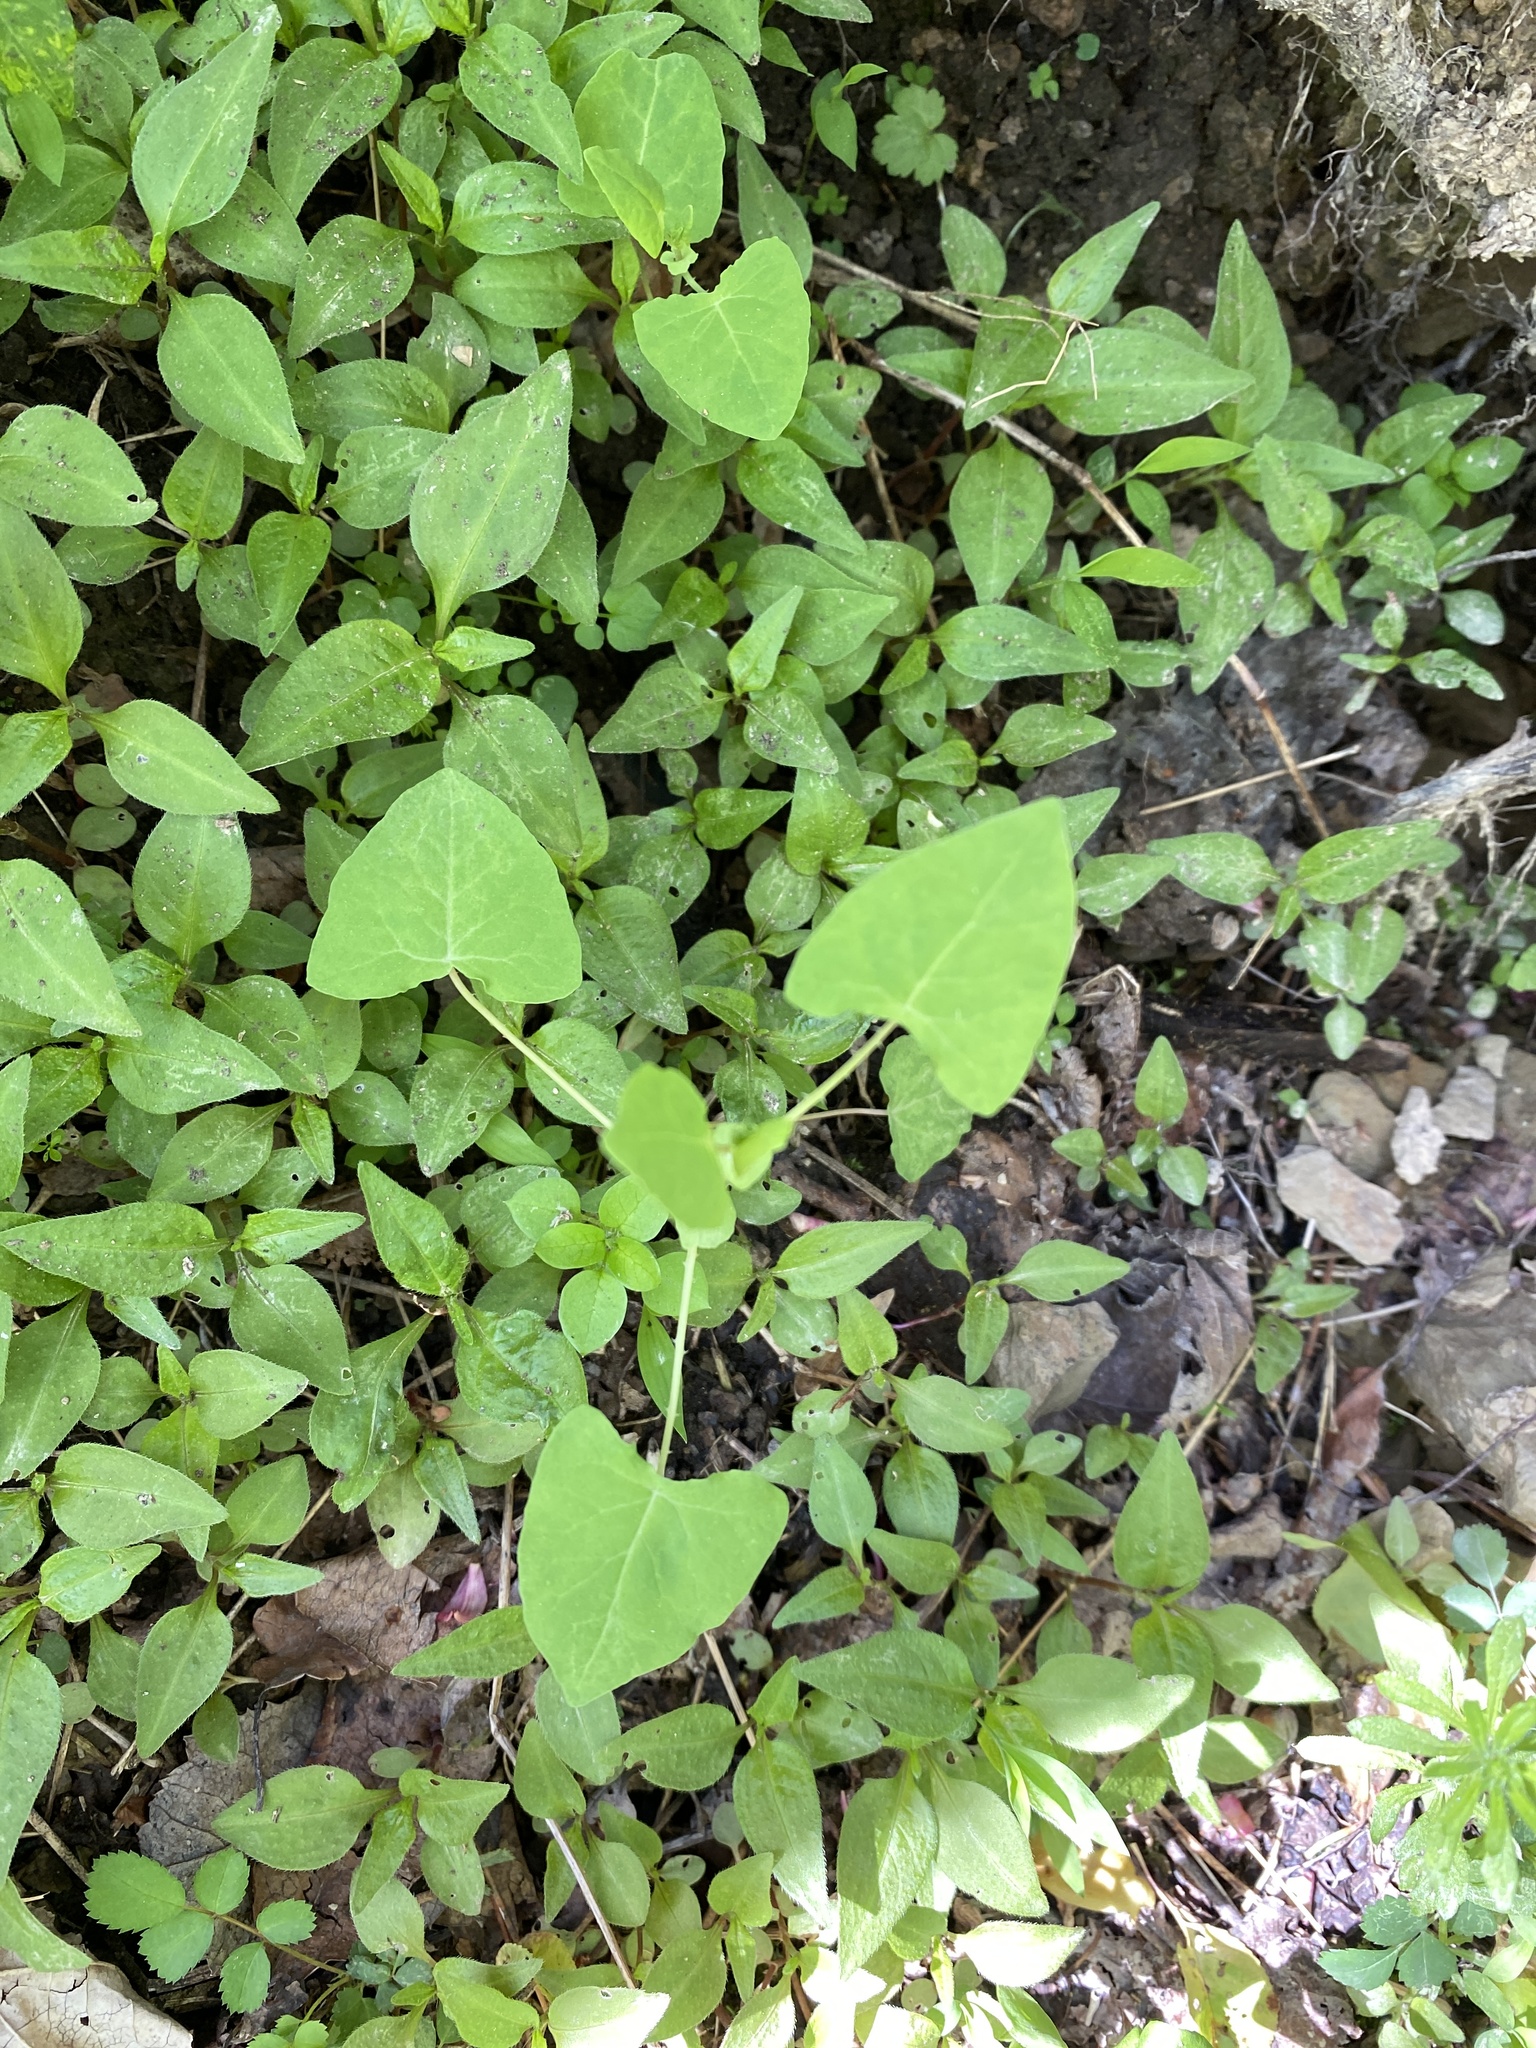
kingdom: Plantae
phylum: Tracheophyta
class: Magnoliopsida
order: Caryophyllales
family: Polygonaceae
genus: Persicaria
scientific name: Persicaria perfoliata
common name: Asiatic tearthumb
